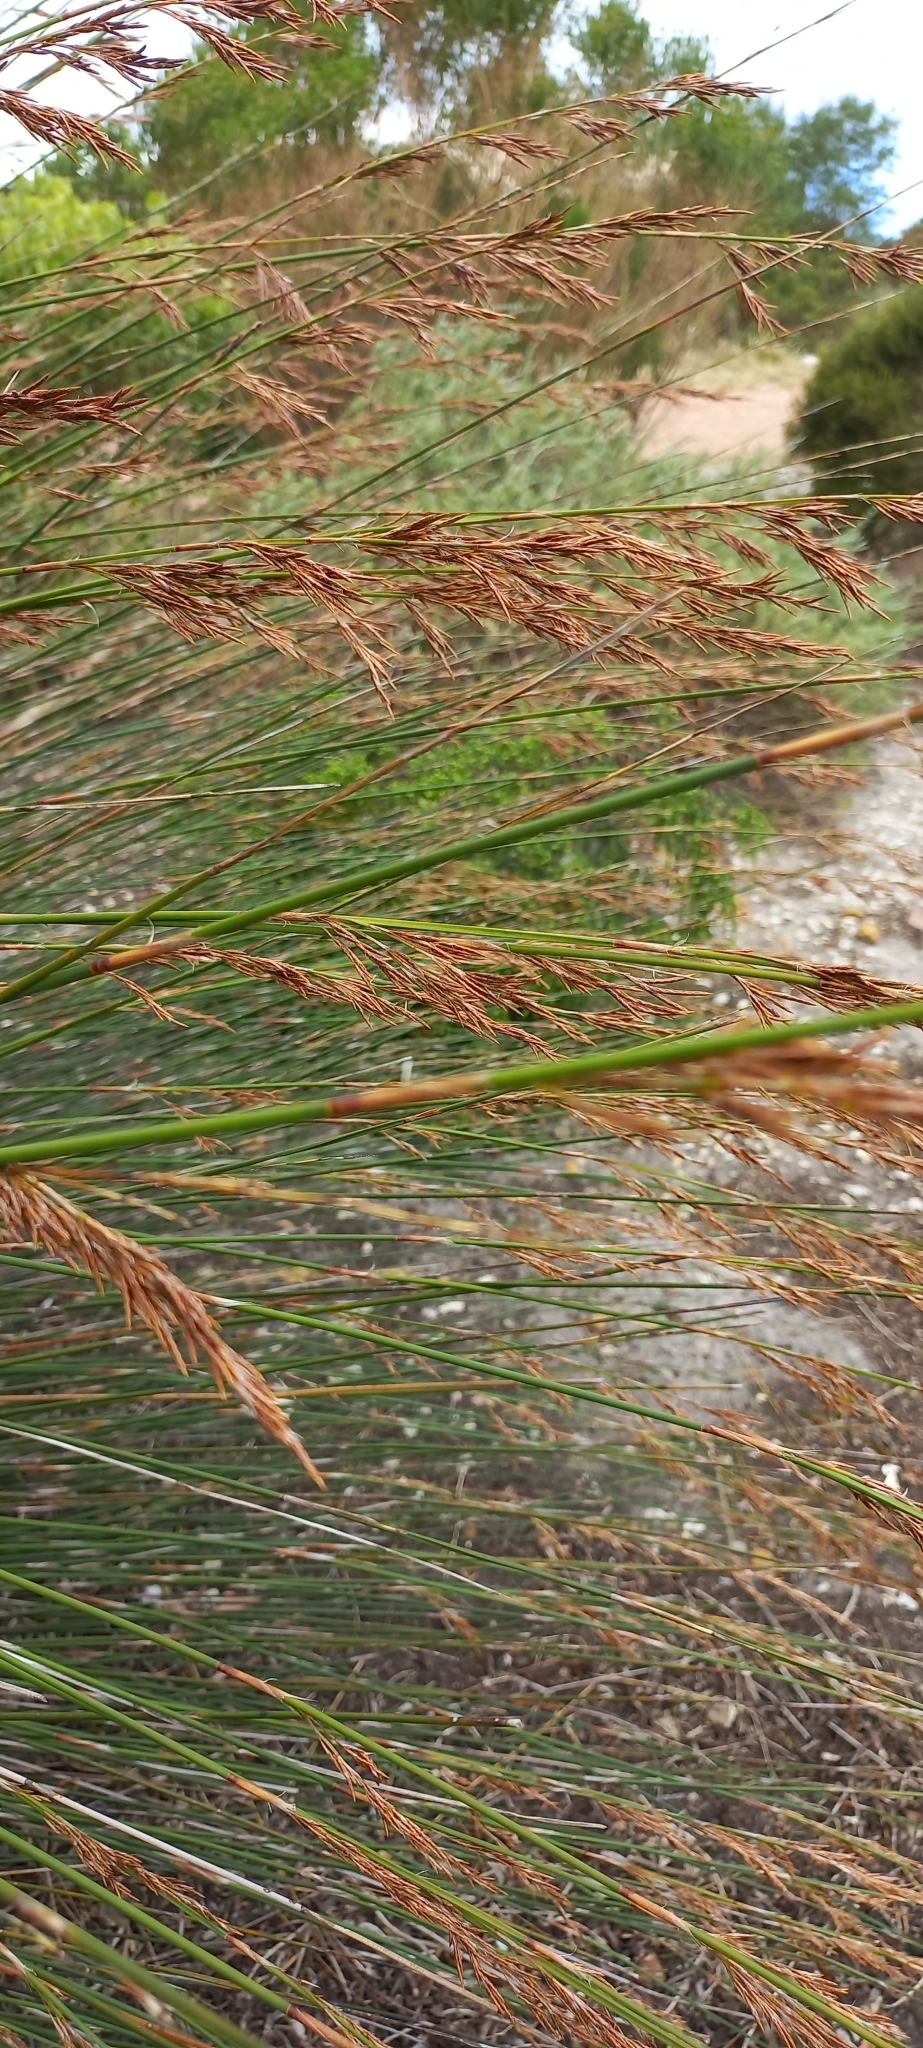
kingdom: Plantae
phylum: Tracheophyta
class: Liliopsida
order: Poales
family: Restionaceae
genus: Thamnochortus
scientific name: Thamnochortus insignis
